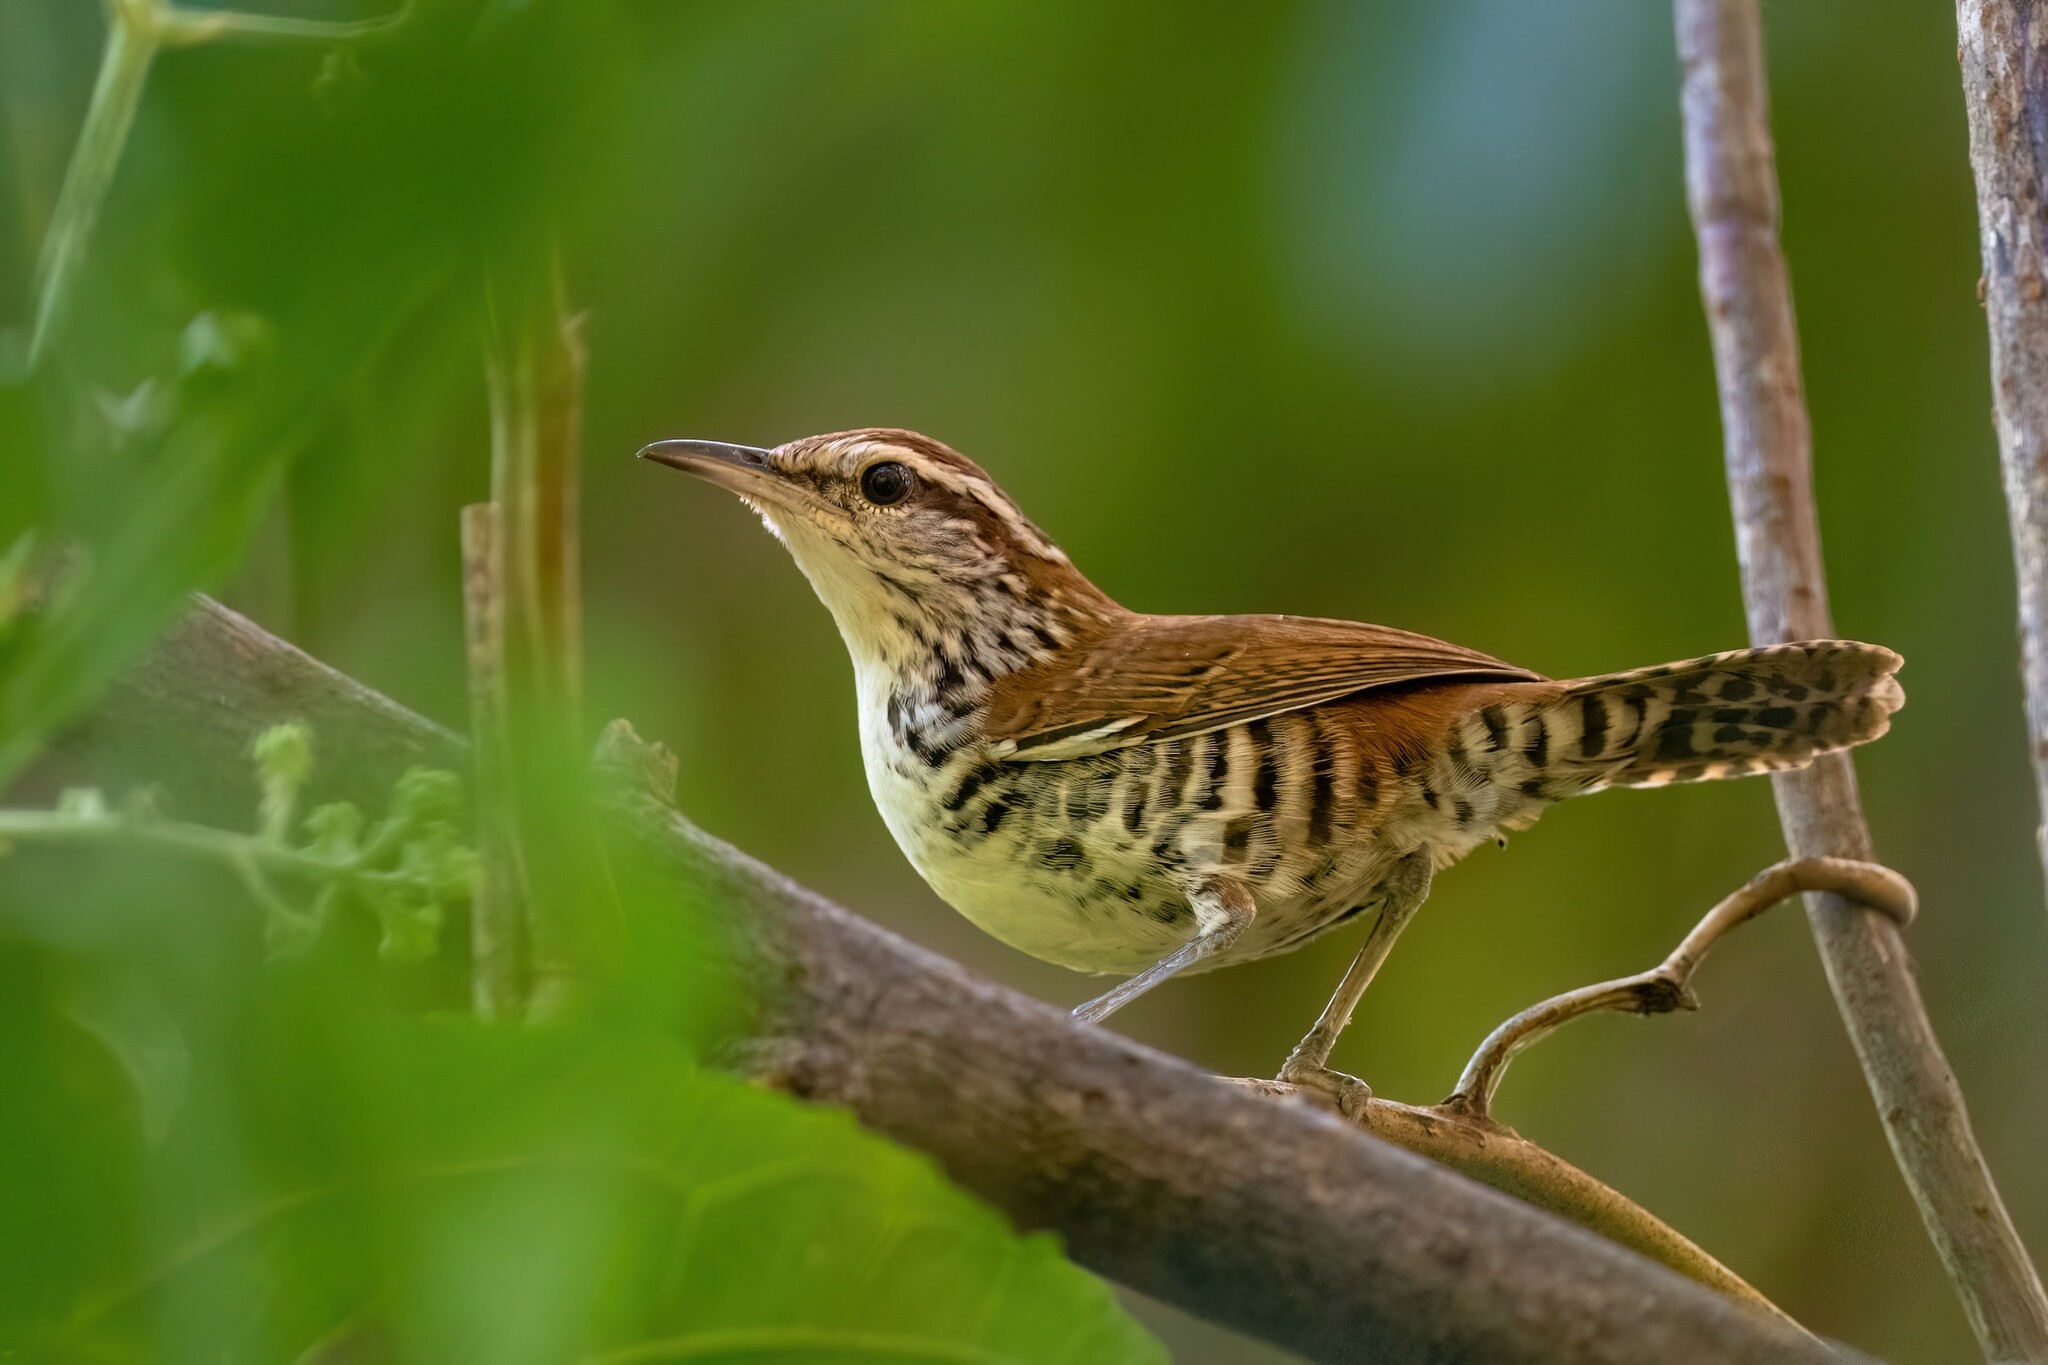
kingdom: Animalia
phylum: Chordata
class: Aves
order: Passeriformes
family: Troglodytidae
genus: Thryophilus
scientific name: Thryophilus pleurostictus
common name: Banded wren
